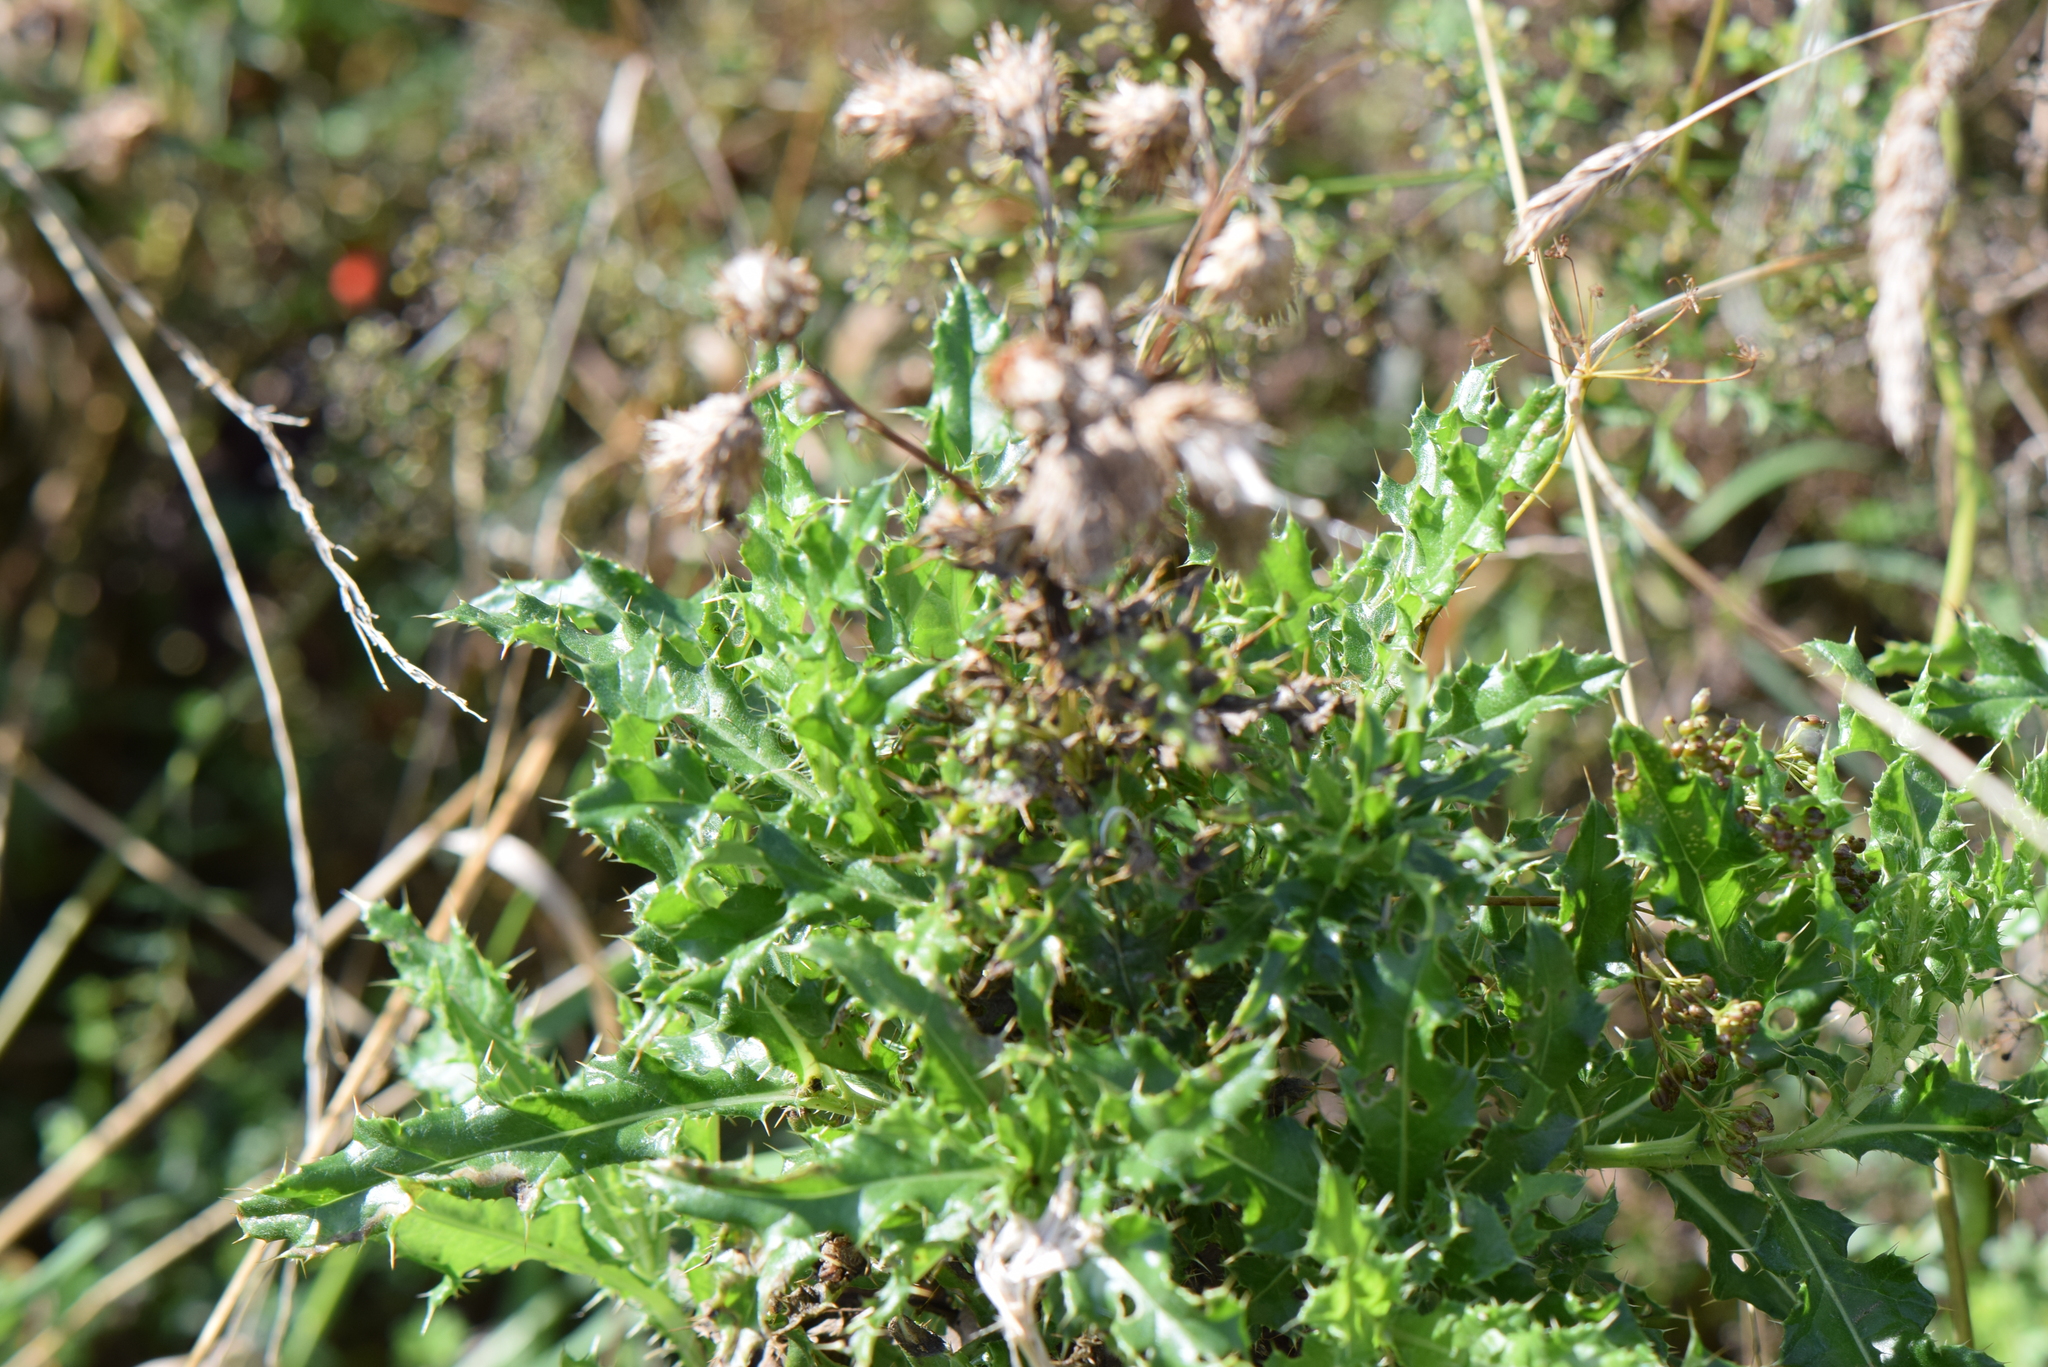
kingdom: Plantae
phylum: Tracheophyta
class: Magnoliopsida
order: Asterales
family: Asteraceae
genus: Cirsium
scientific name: Cirsium arvense
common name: Creeping thistle
